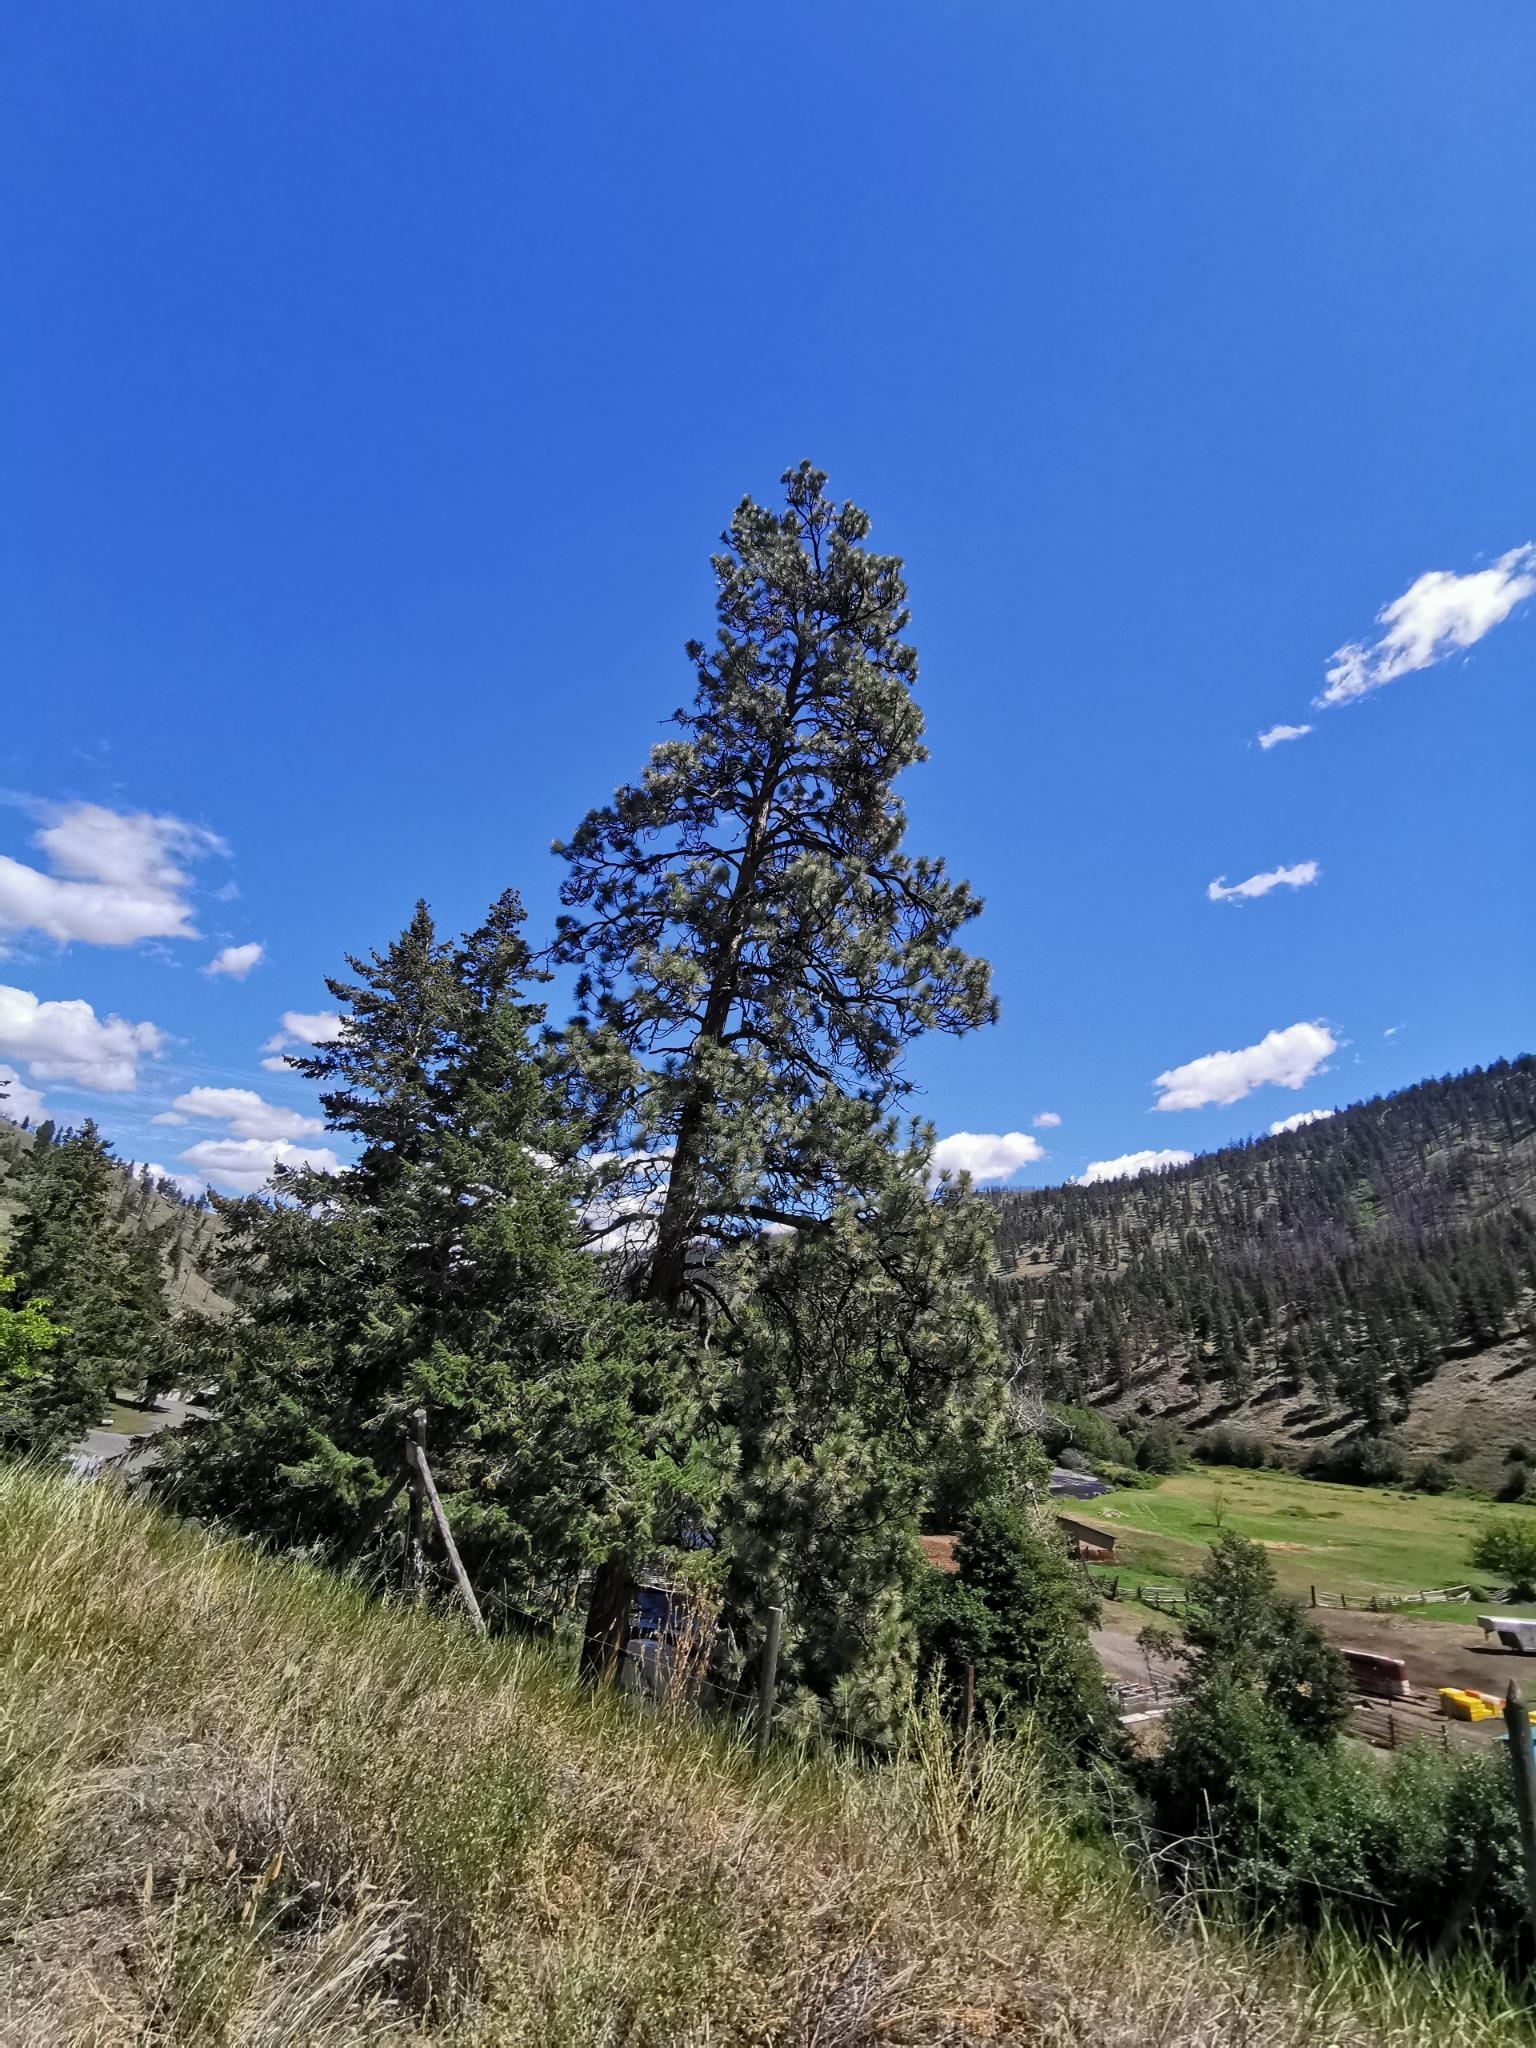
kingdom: Plantae
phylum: Tracheophyta
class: Pinopsida
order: Pinales
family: Pinaceae
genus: Pinus
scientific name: Pinus ponderosa
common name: Western yellow-pine
